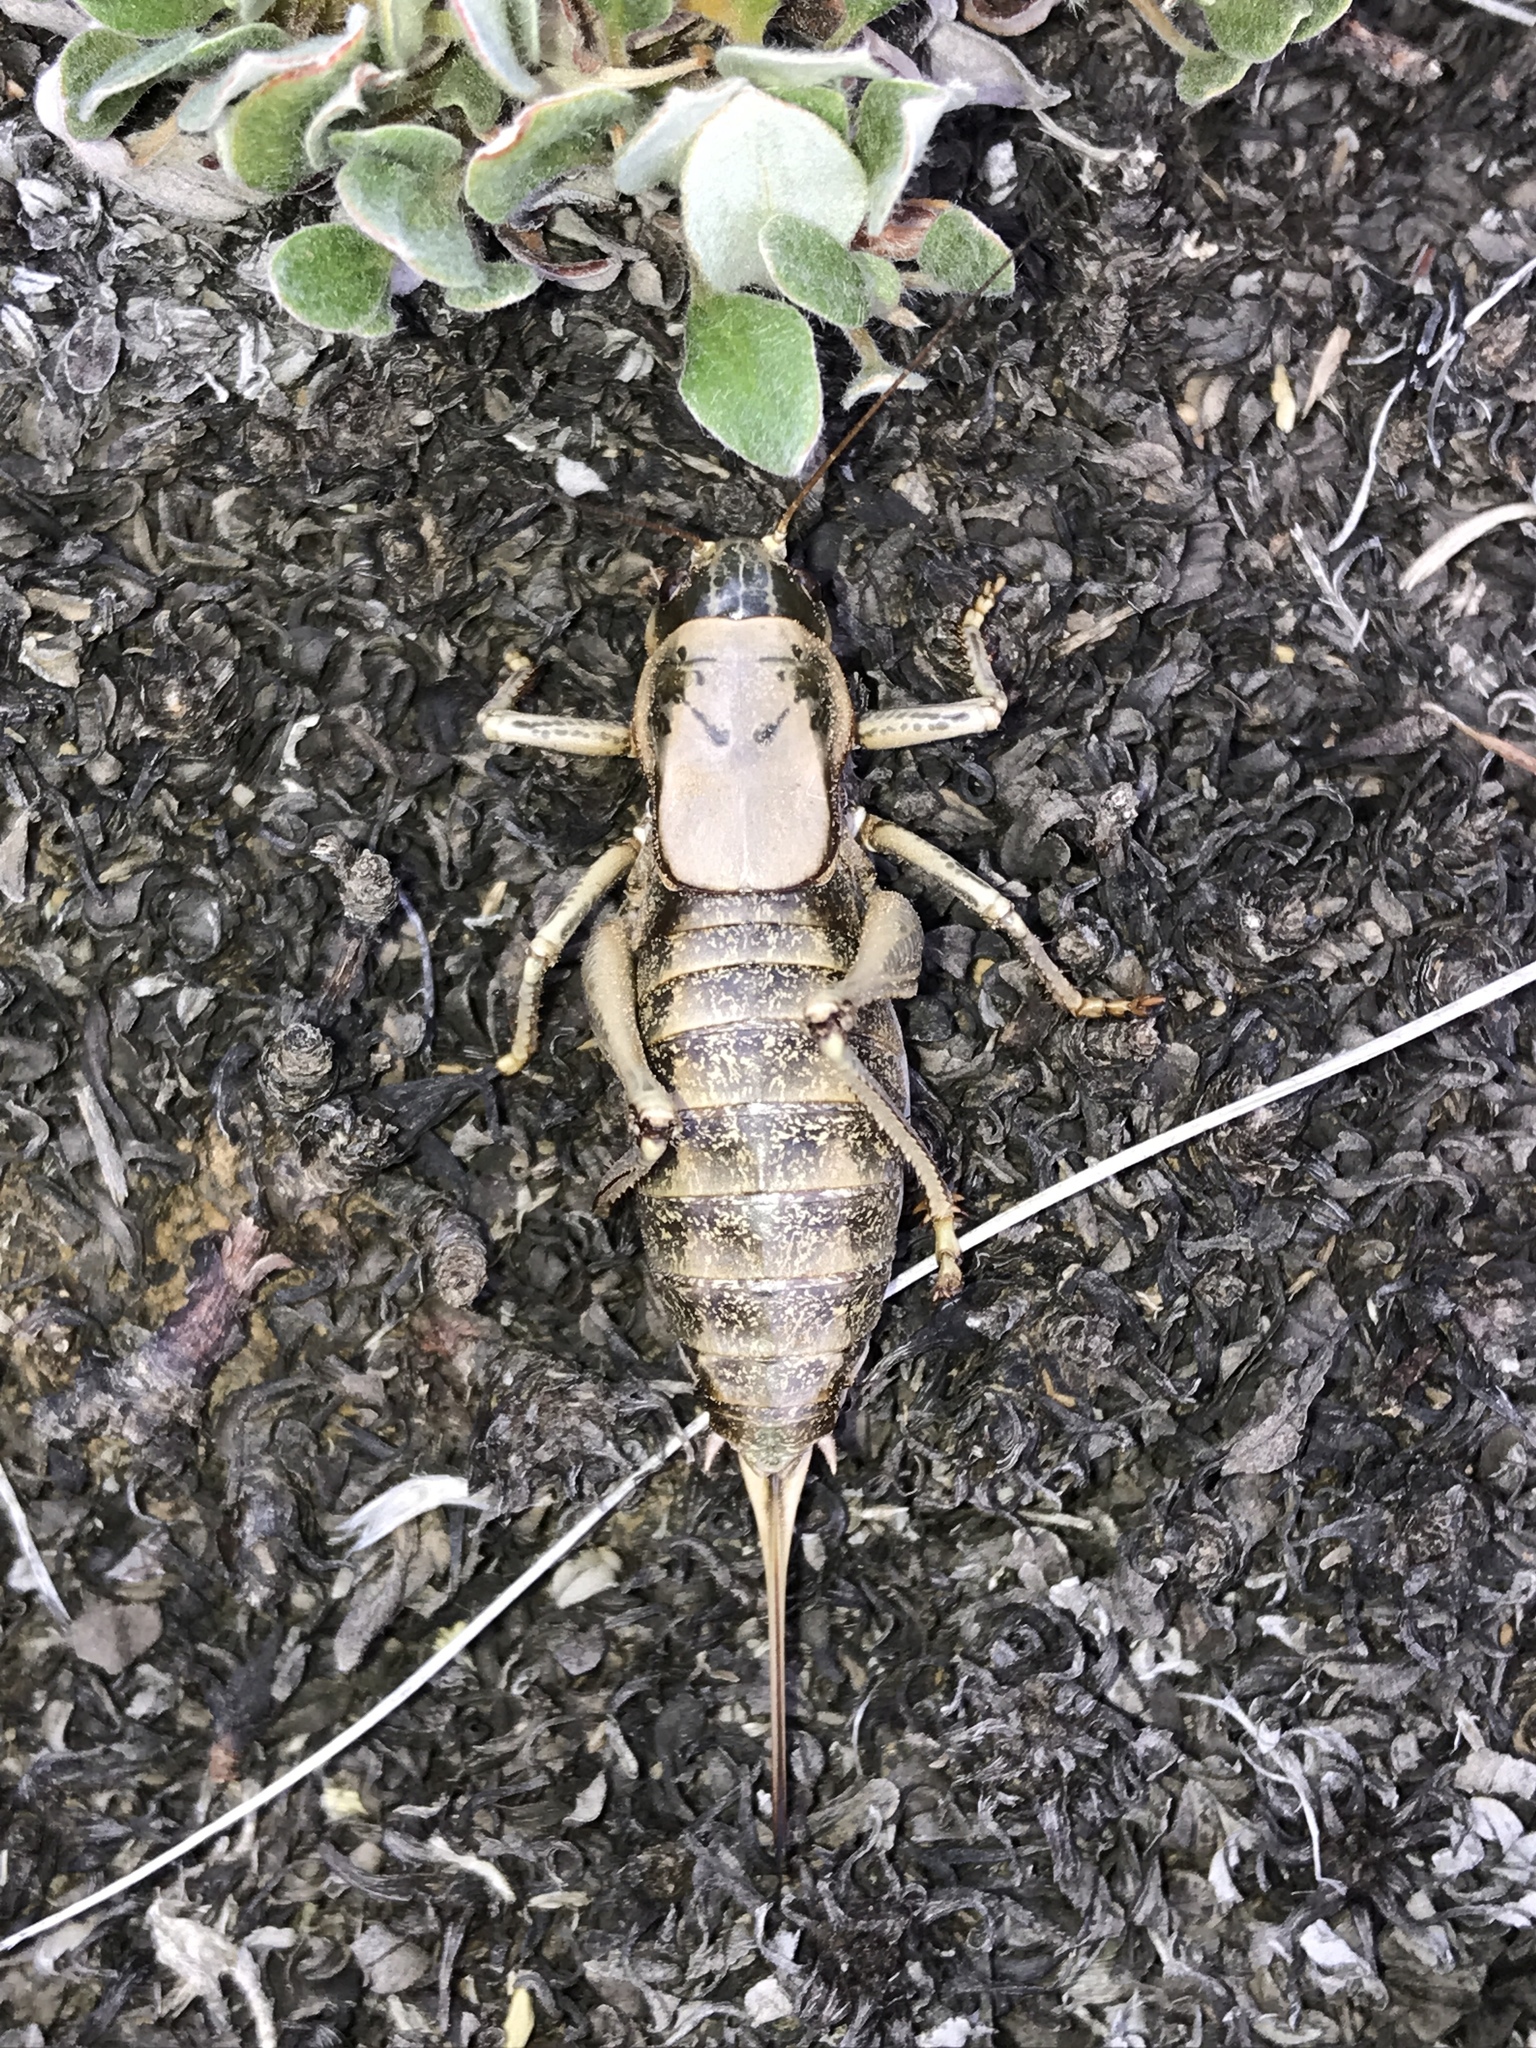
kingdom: Animalia
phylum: Arthropoda
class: Insecta
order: Orthoptera
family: Tettigoniidae
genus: Anabrus
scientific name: Anabrus simplex
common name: Mormon cricket
